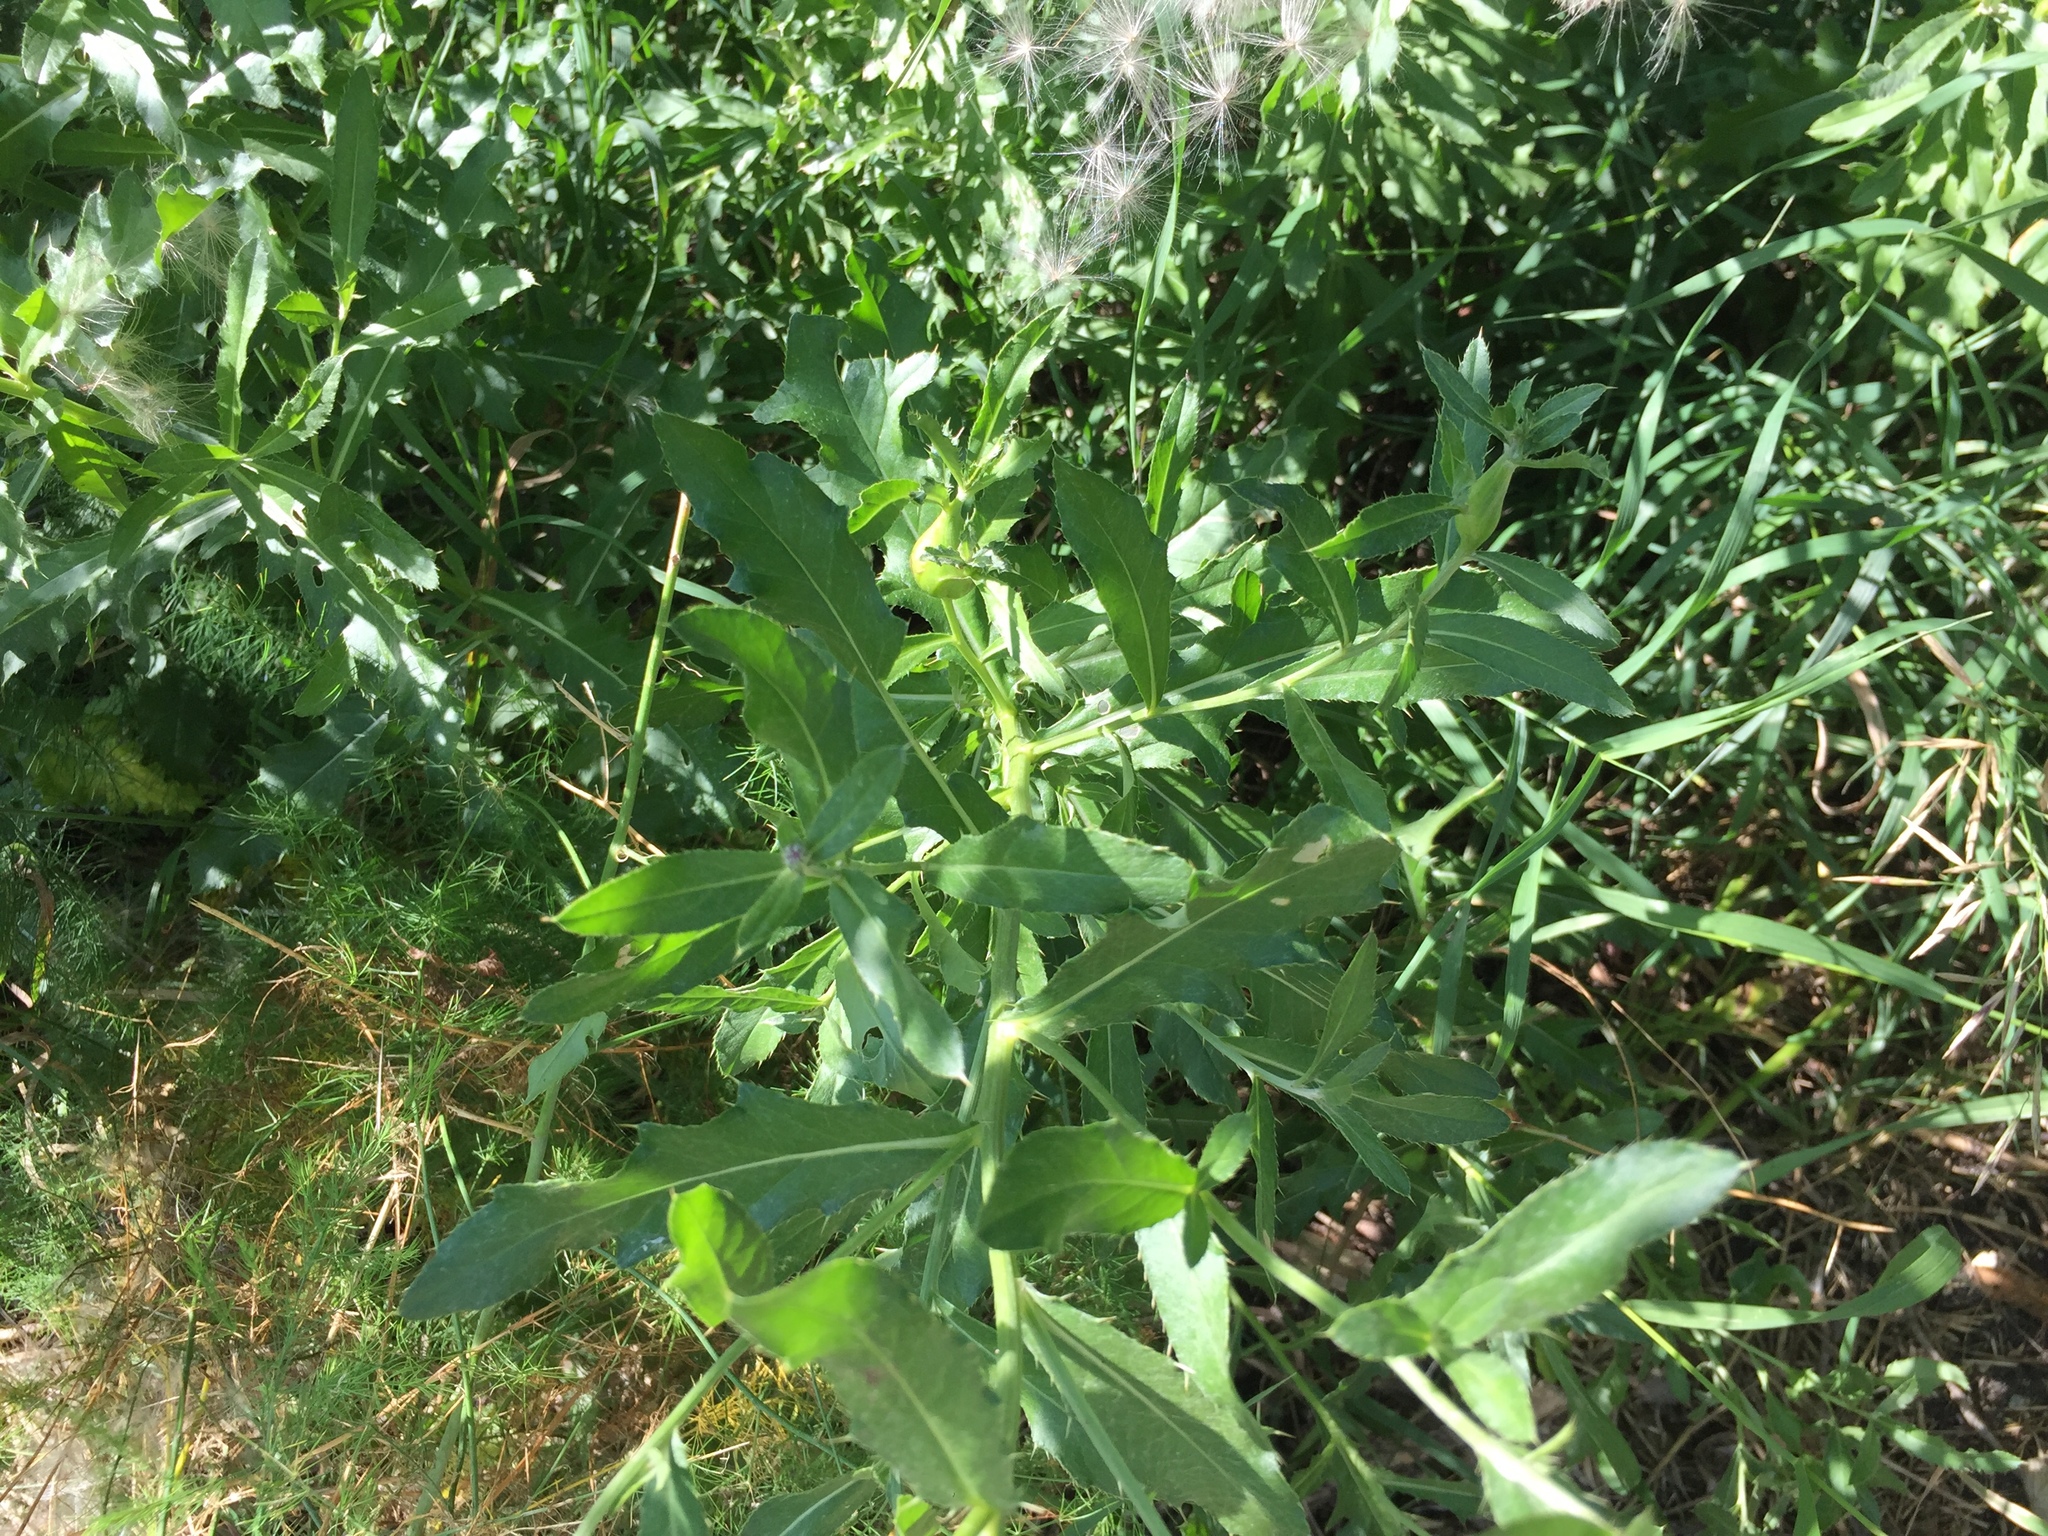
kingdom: Plantae
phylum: Tracheophyta
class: Magnoliopsida
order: Asterales
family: Asteraceae
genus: Cirsium
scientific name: Cirsium arvense
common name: Creeping thistle
